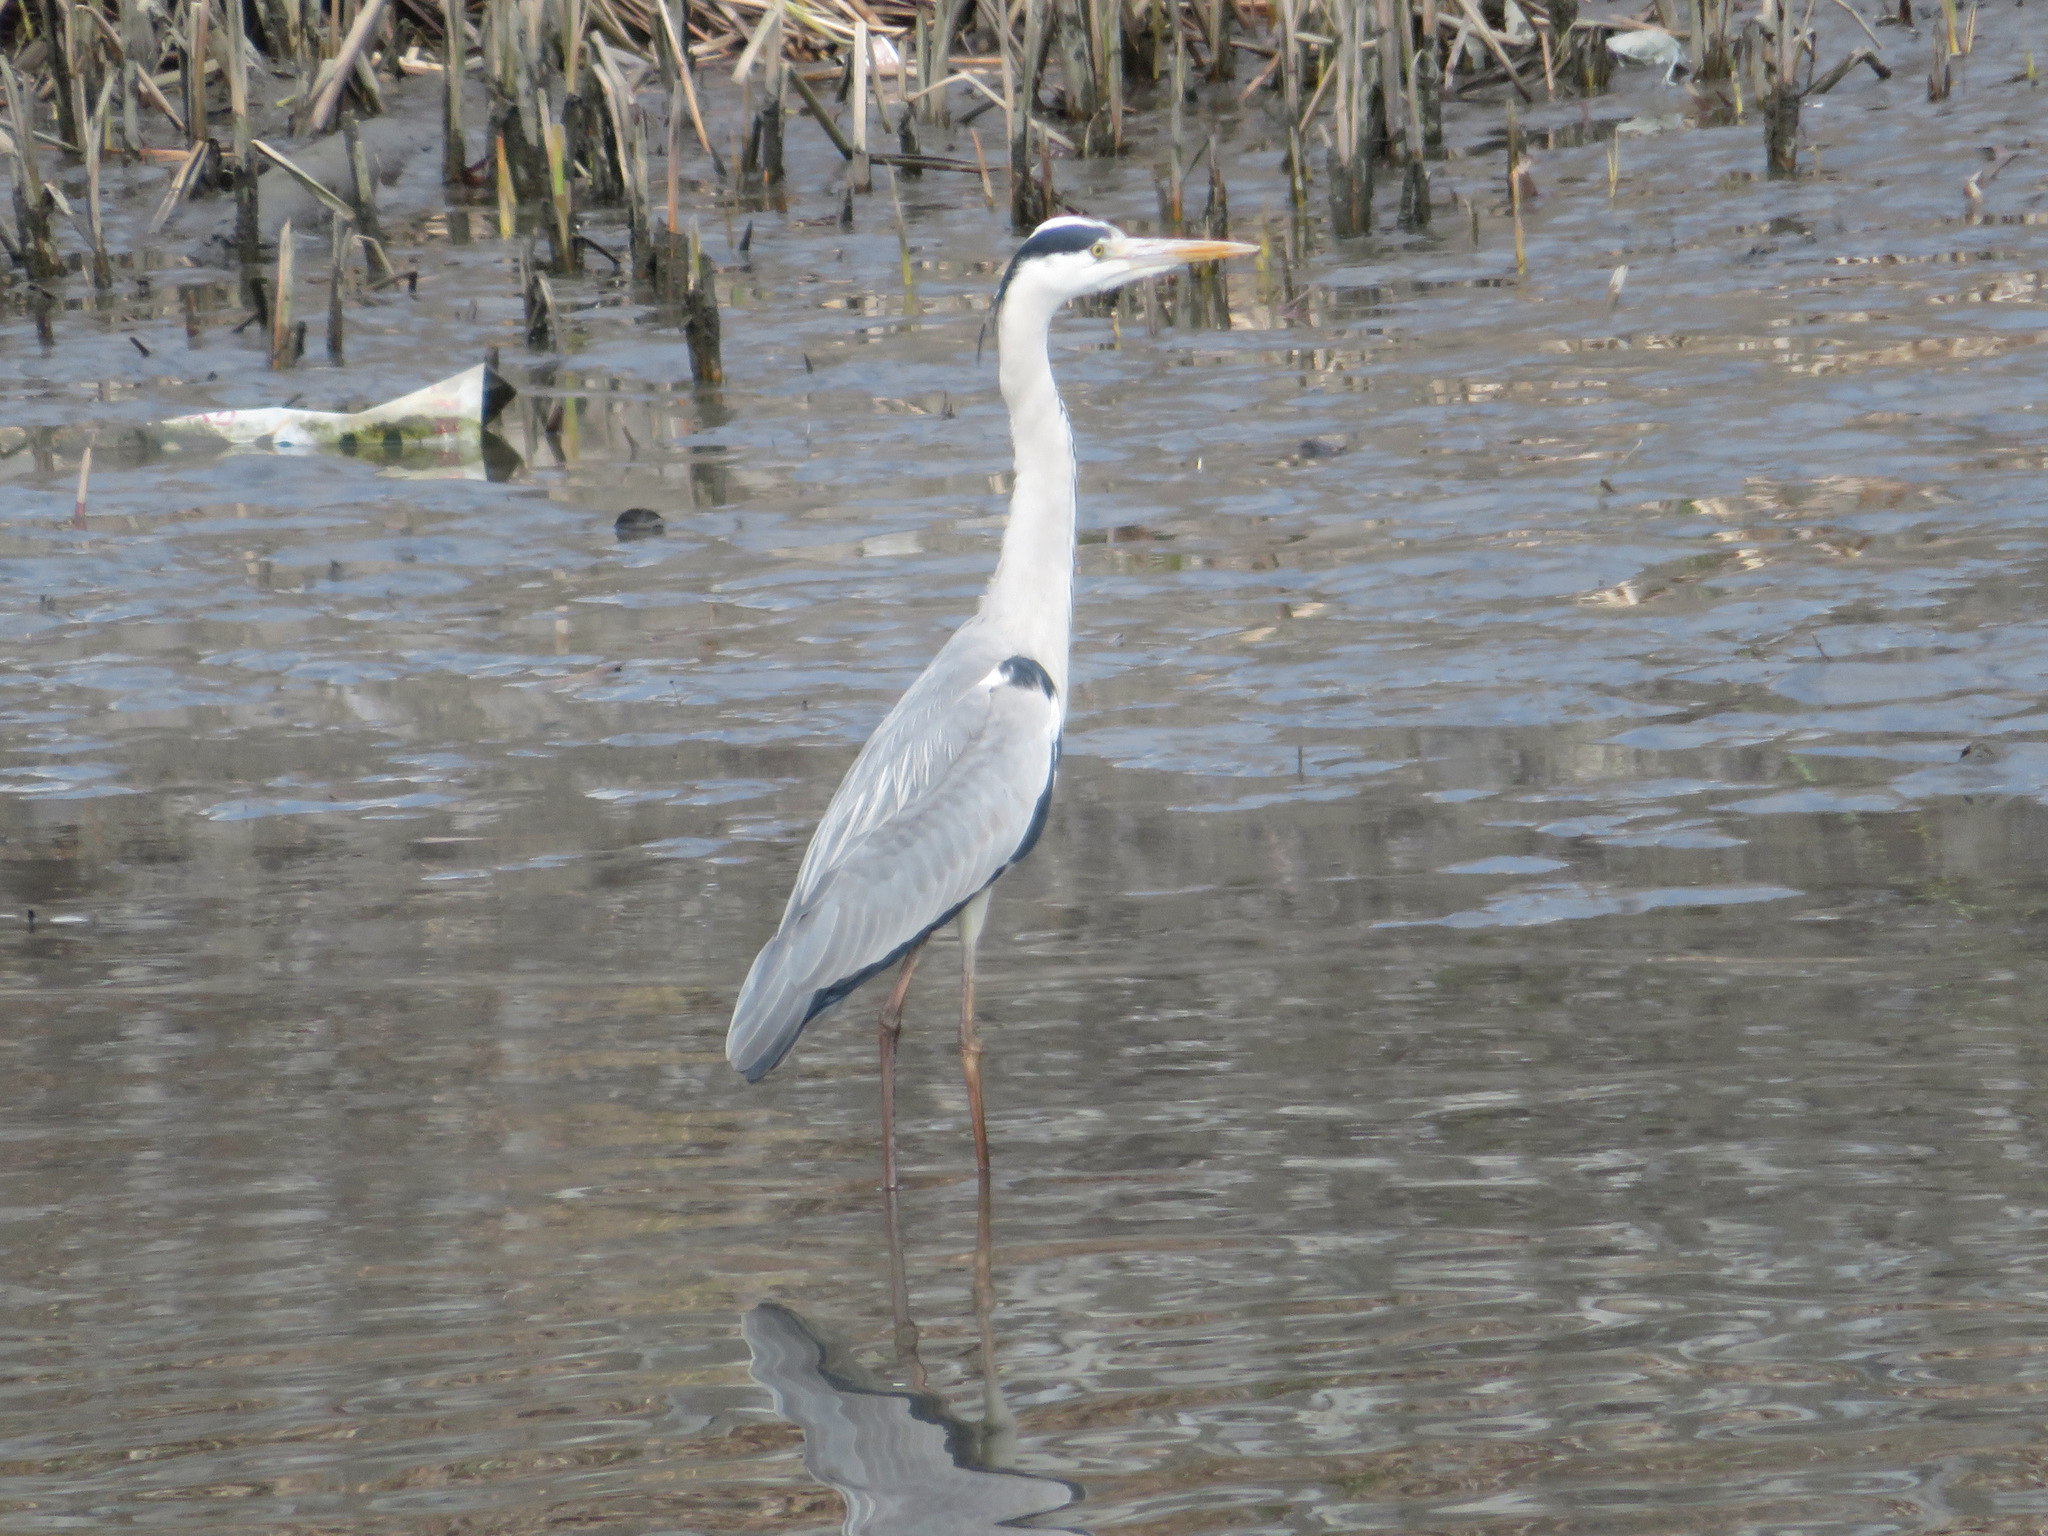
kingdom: Animalia
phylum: Chordata
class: Aves
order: Pelecaniformes
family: Ardeidae
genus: Ardea
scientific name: Ardea cinerea
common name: Grey heron
